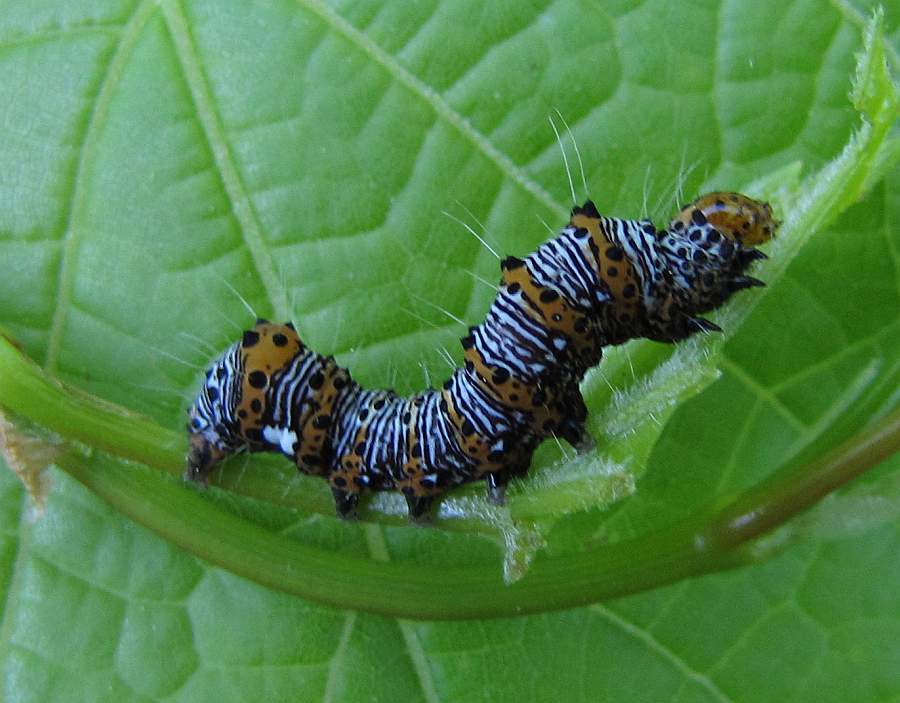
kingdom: Animalia
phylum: Arthropoda
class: Insecta
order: Lepidoptera
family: Noctuidae
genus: Alypia
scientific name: Alypia octomaculata
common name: Eight-spotted forester
